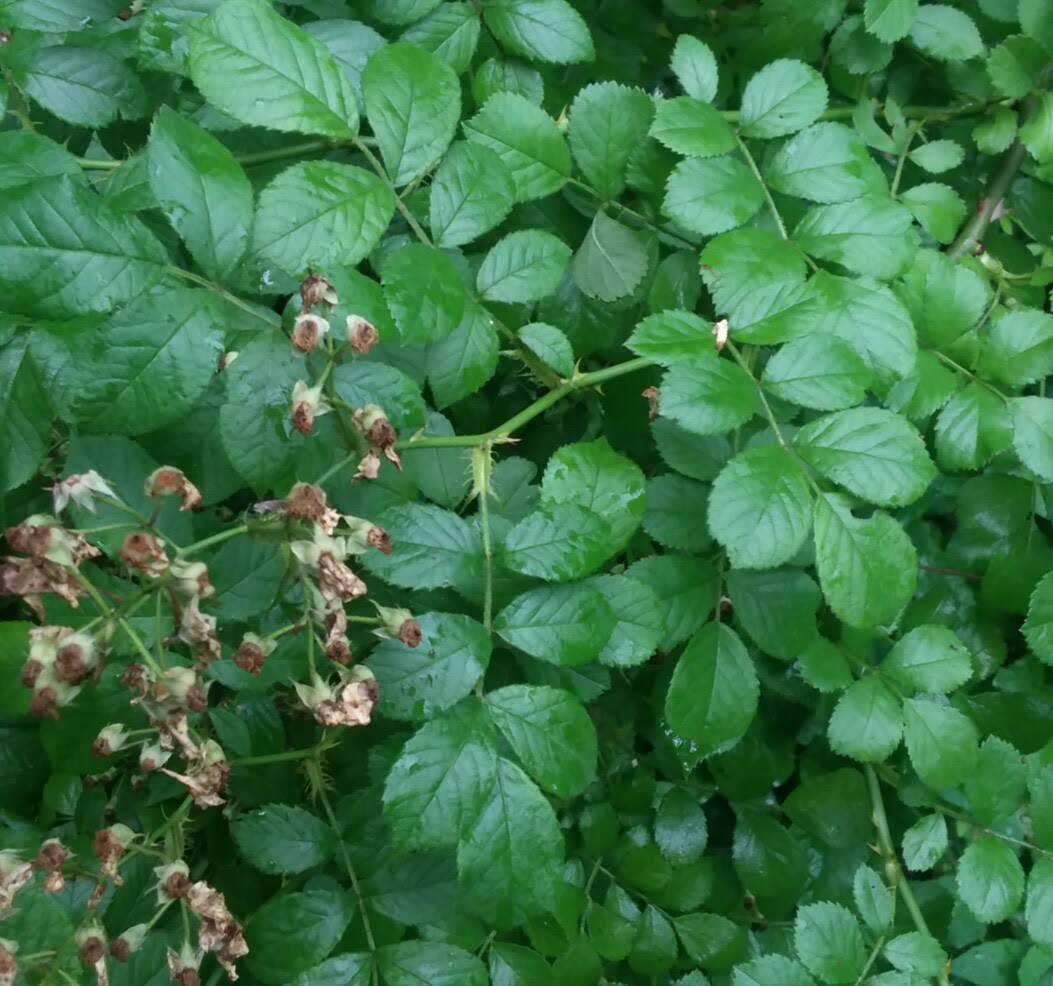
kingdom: Plantae
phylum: Tracheophyta
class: Magnoliopsida
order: Rosales
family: Rosaceae
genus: Rosa
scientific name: Rosa multiflora
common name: Multiflora rose
